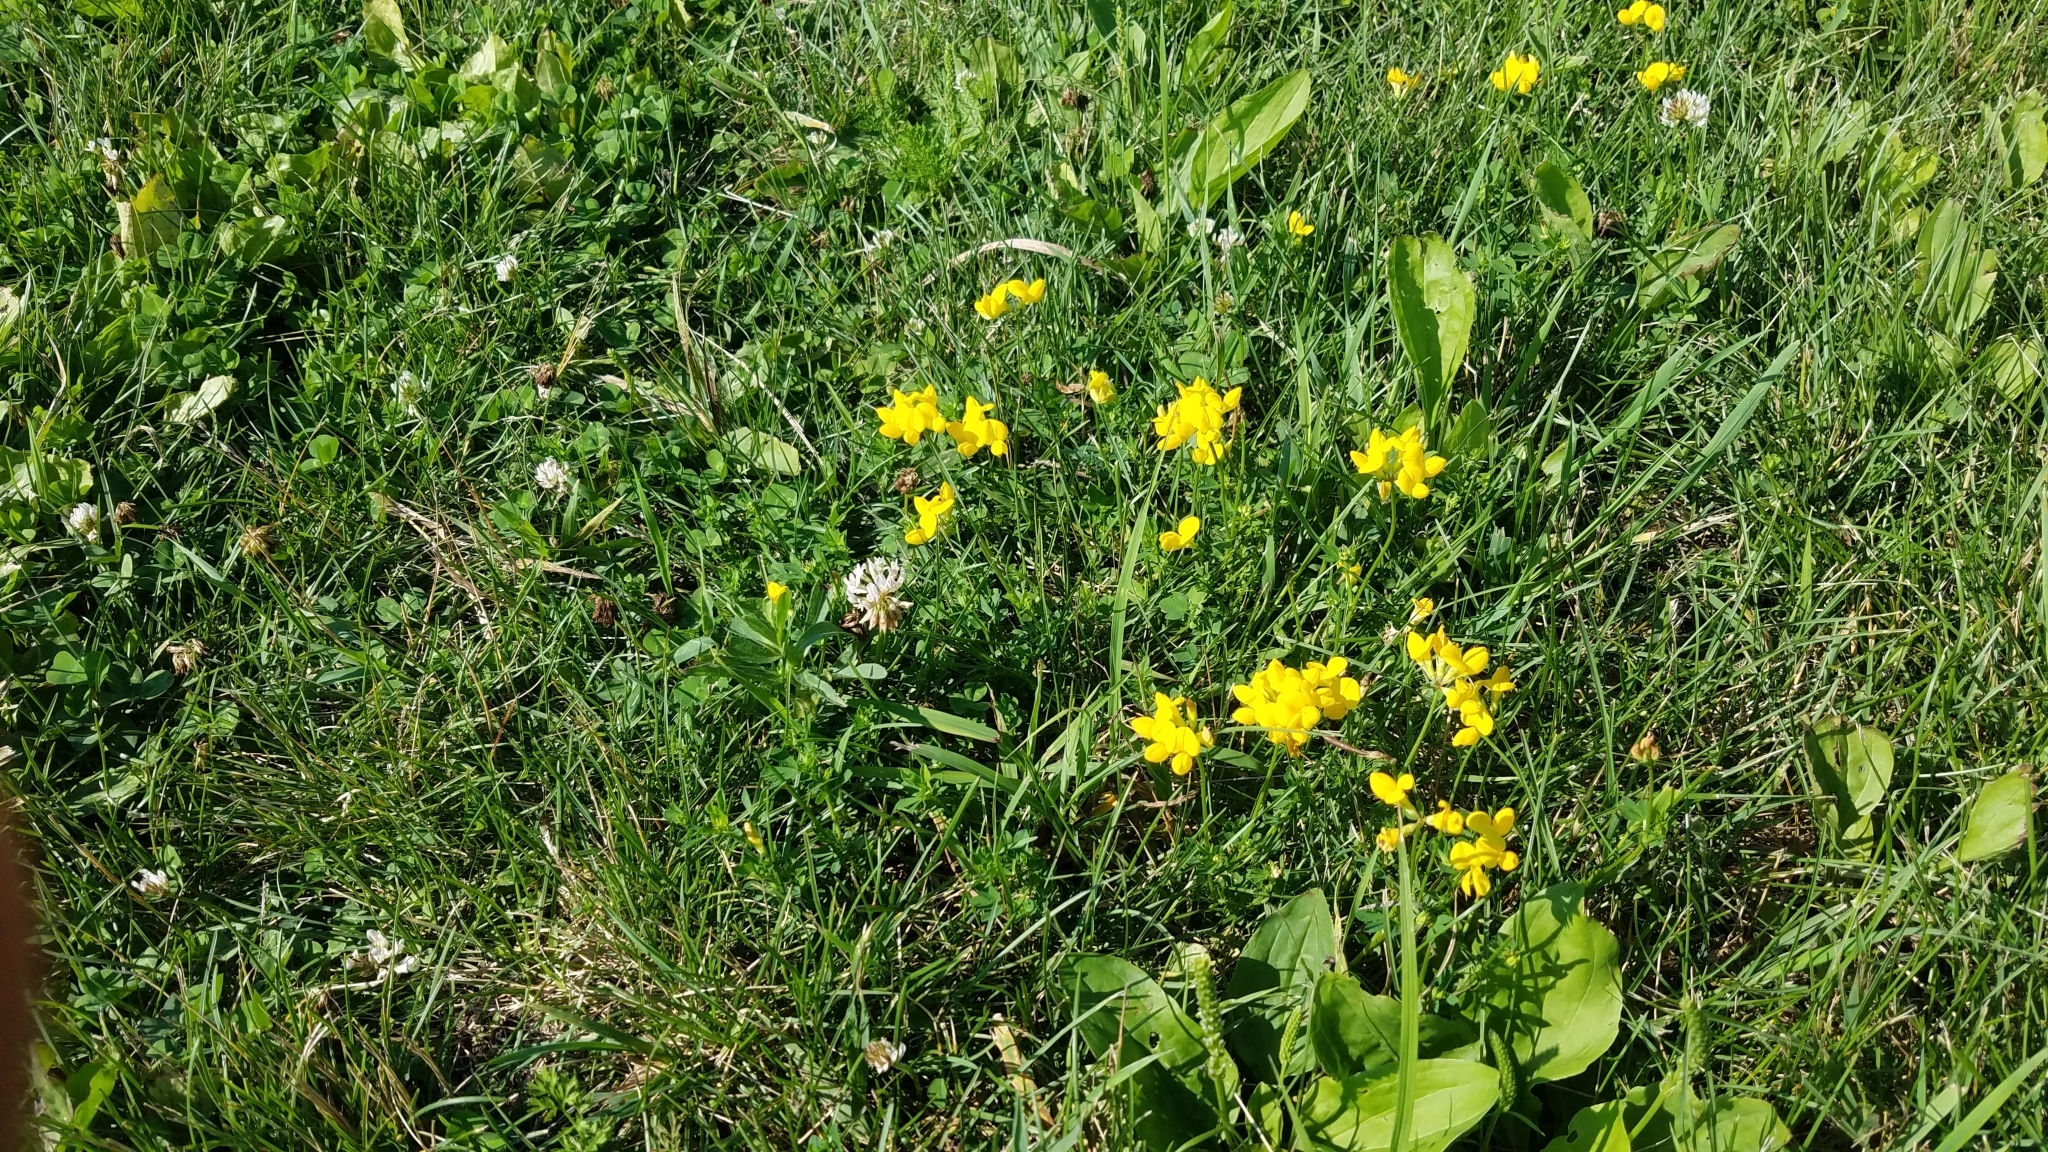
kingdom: Plantae
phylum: Tracheophyta
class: Magnoliopsida
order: Fabales
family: Fabaceae
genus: Lotus
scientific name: Lotus corniculatus
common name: Common bird's-foot-trefoil
